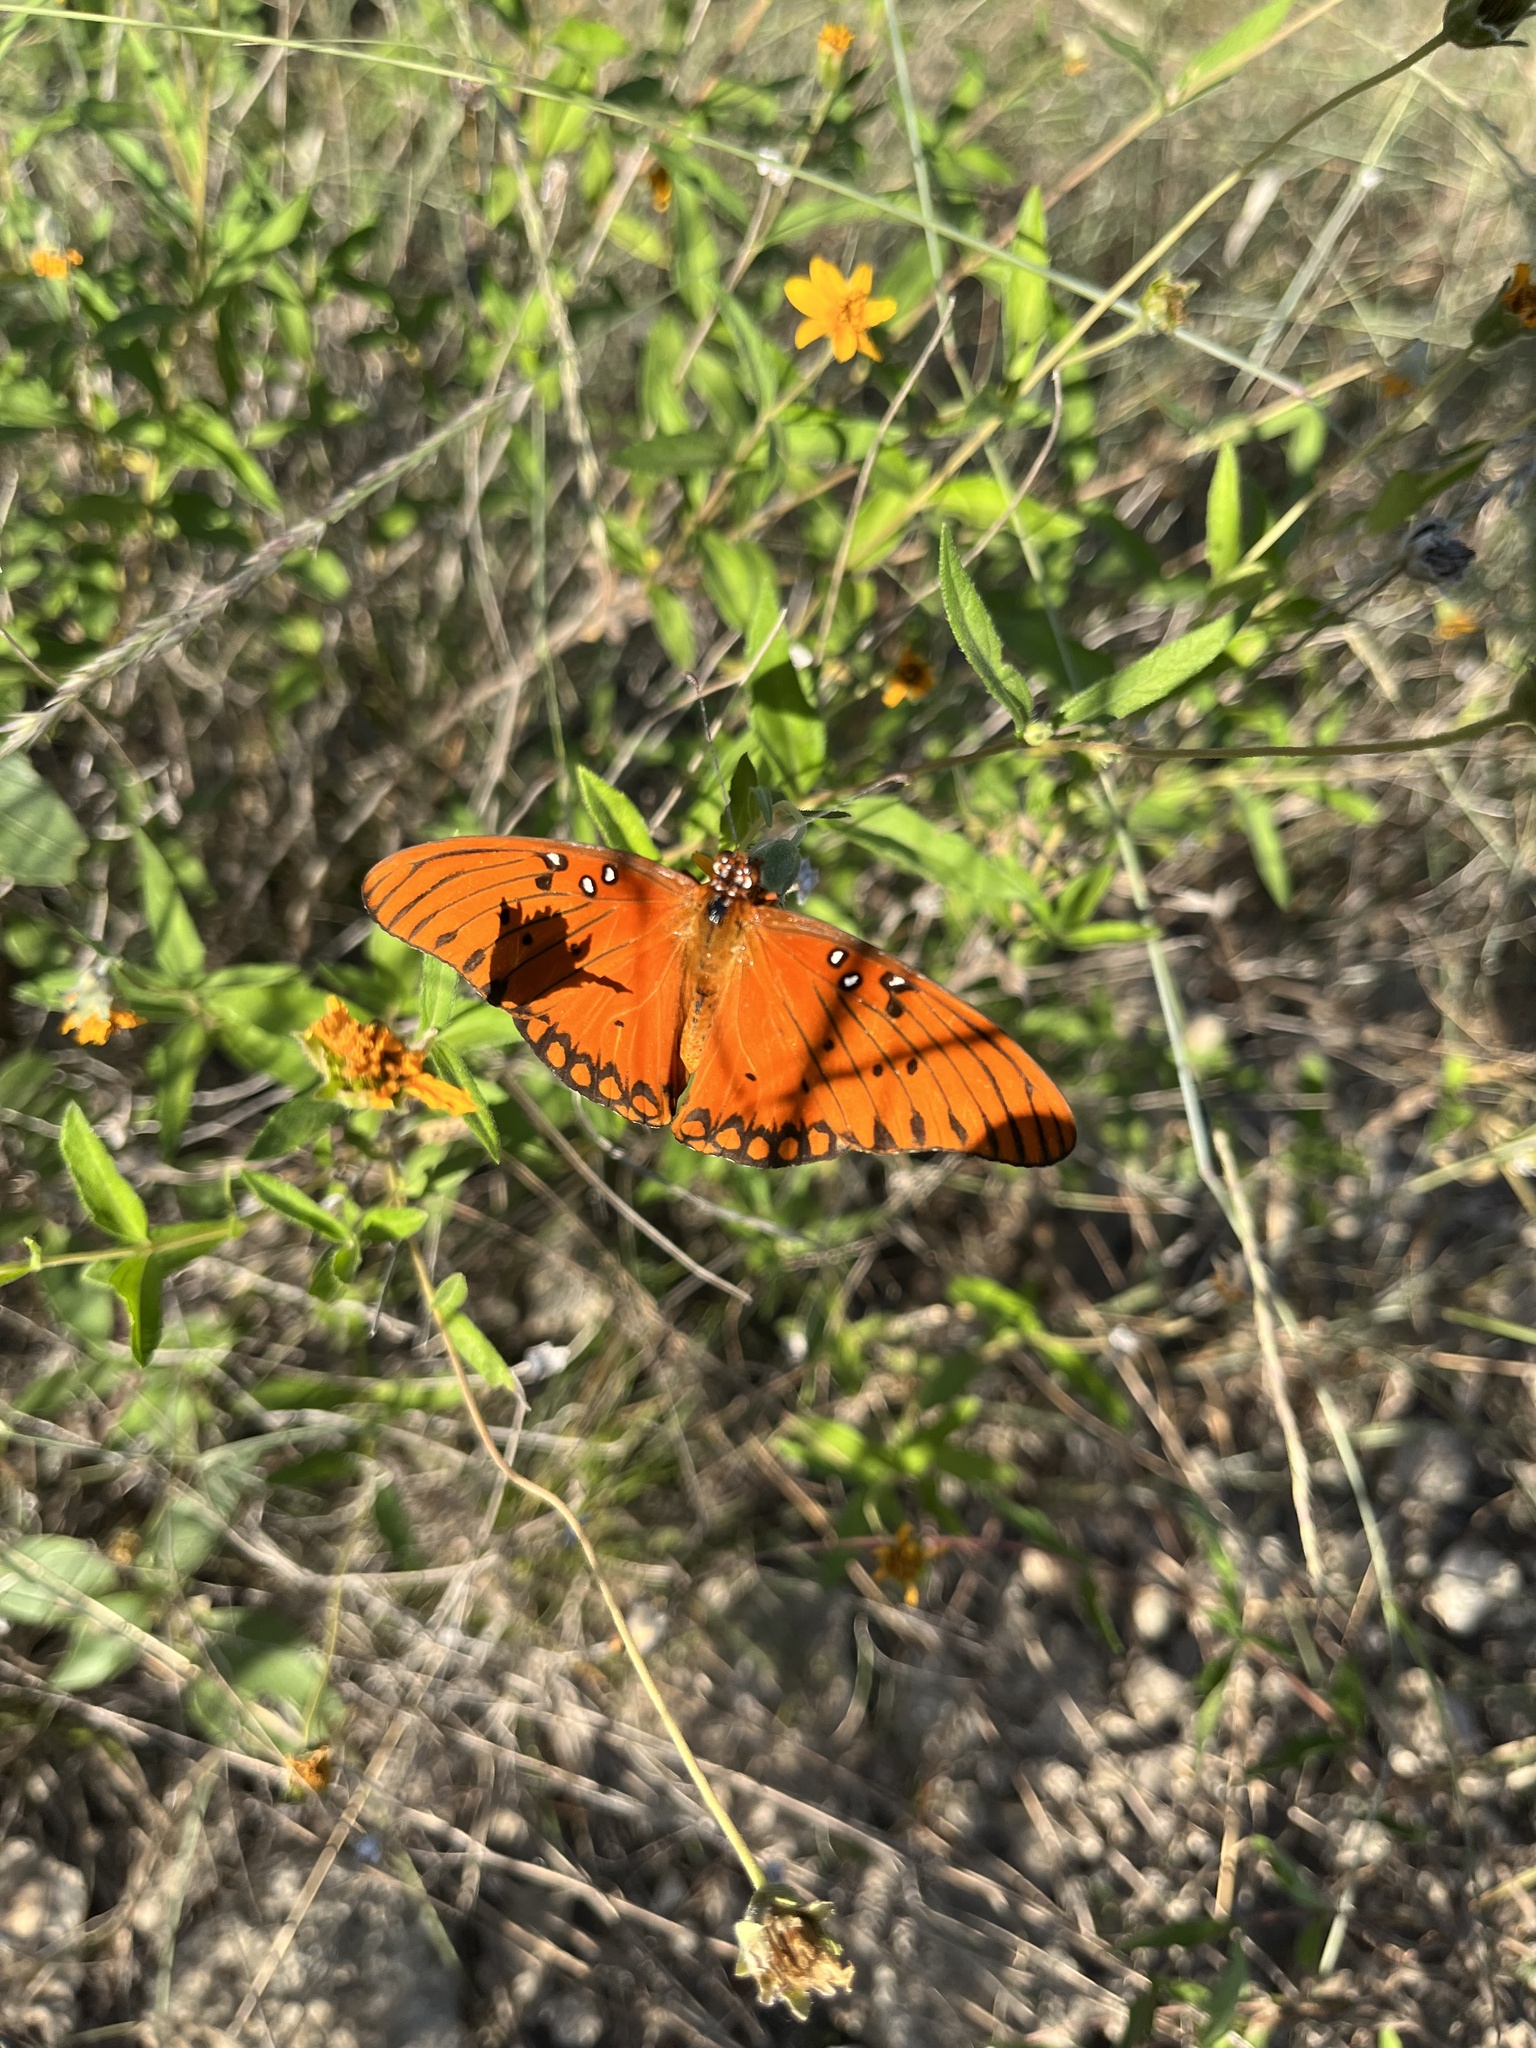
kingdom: Animalia
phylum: Arthropoda
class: Insecta
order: Lepidoptera
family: Nymphalidae
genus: Dione
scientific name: Dione vanillae
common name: Gulf fritillary
